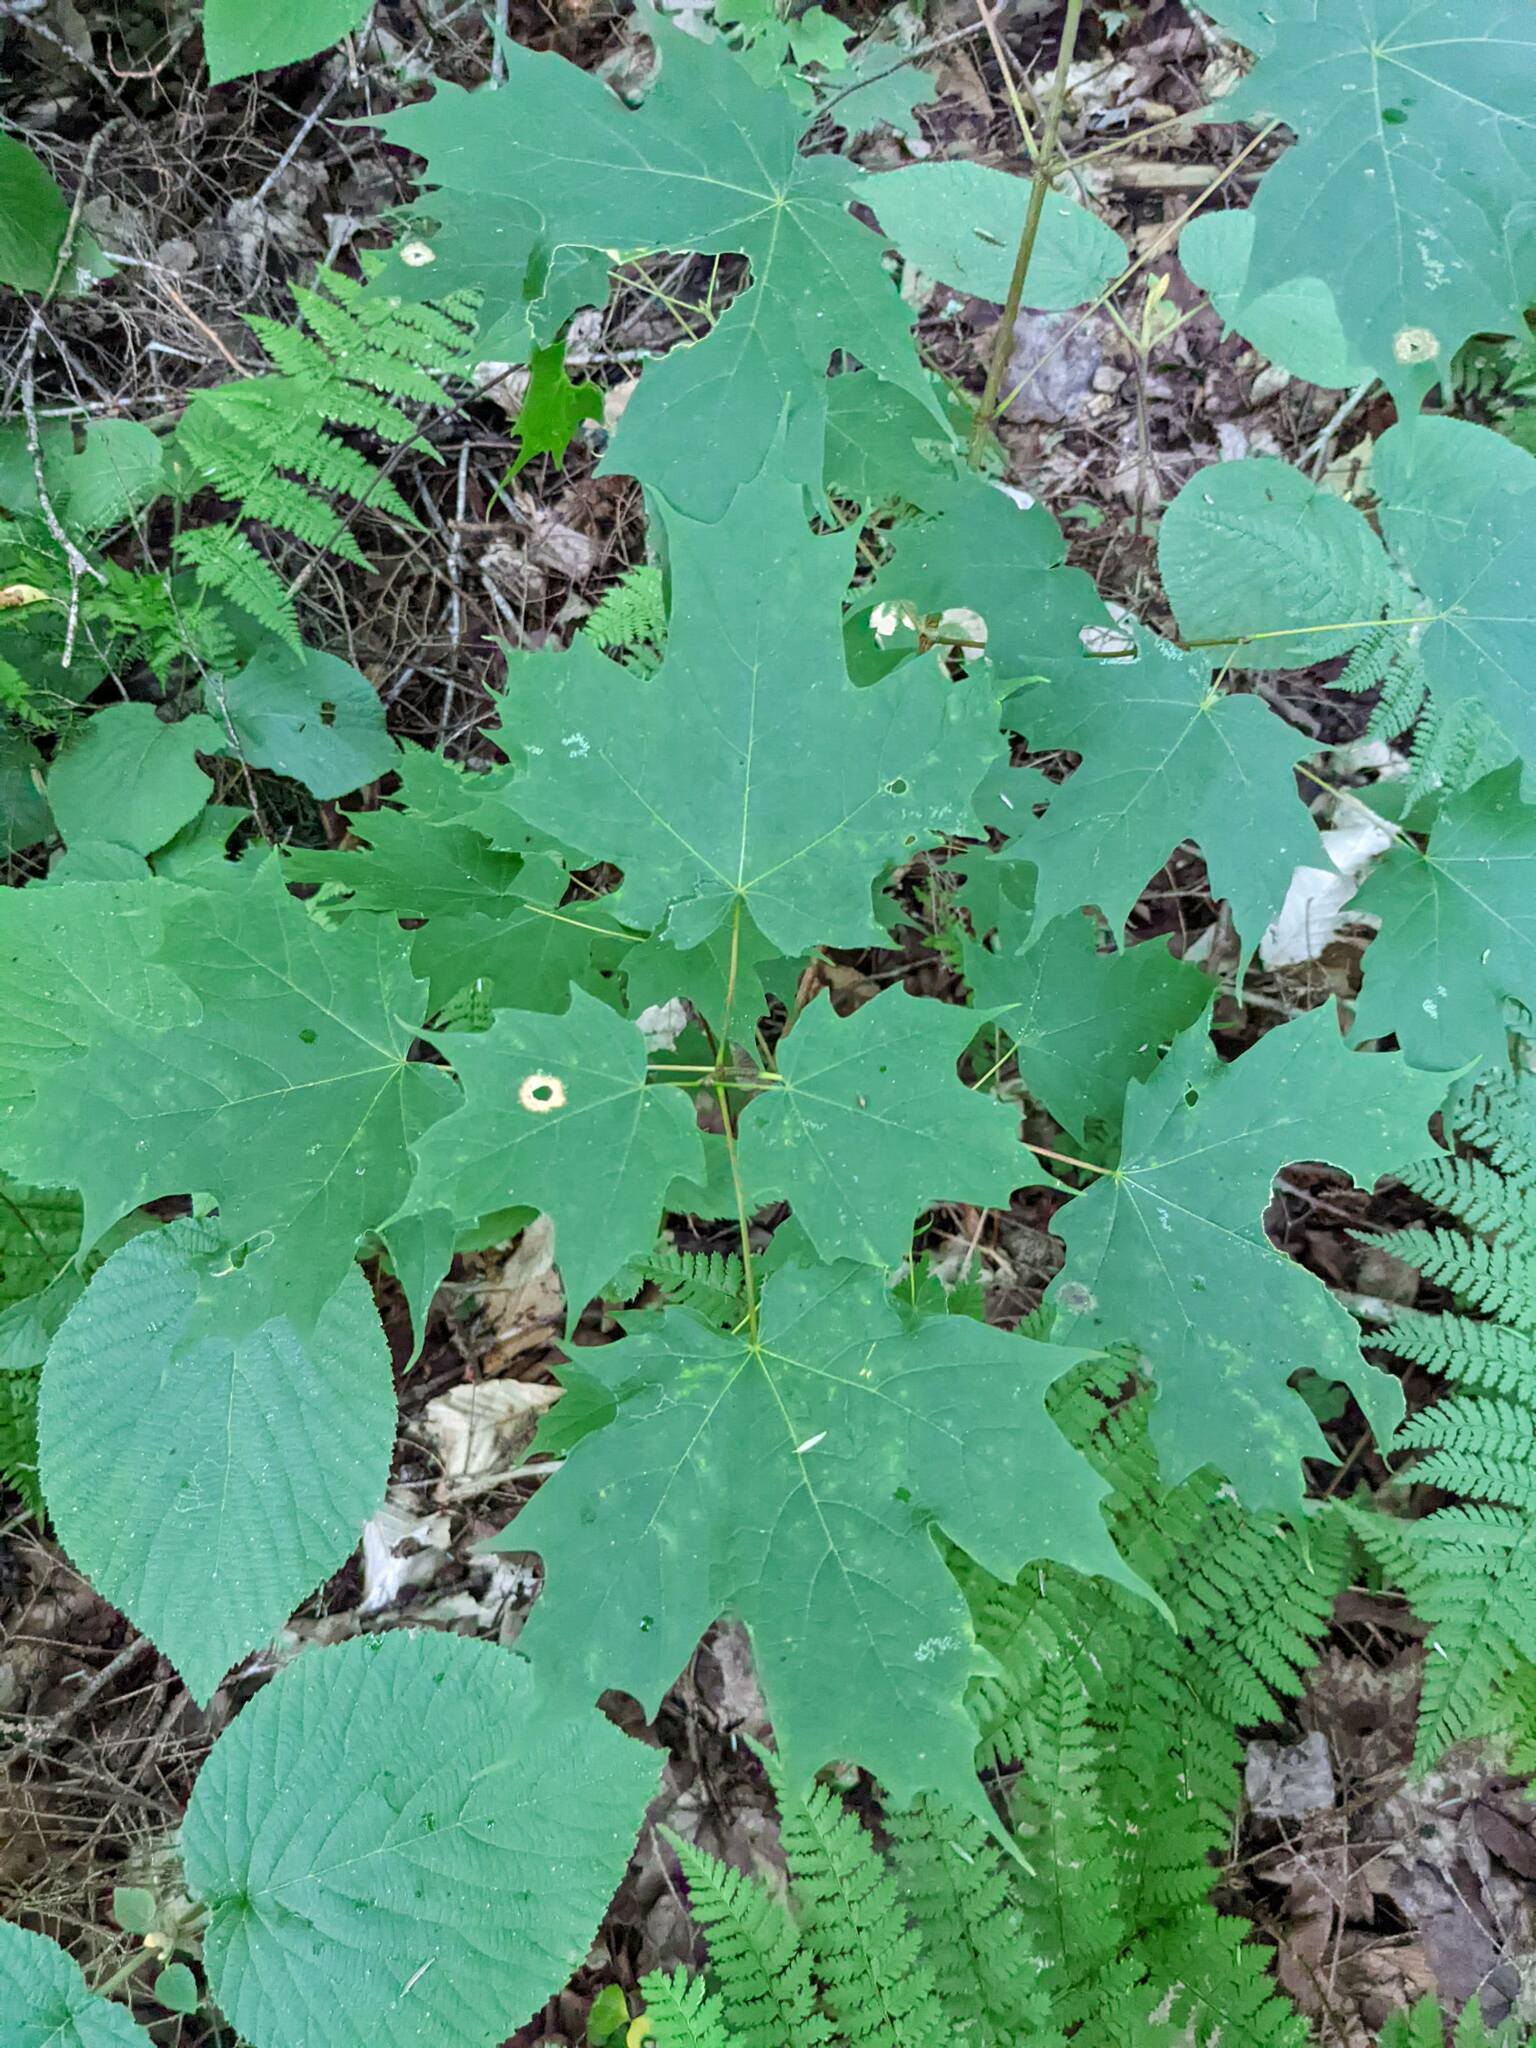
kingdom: Plantae
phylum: Tracheophyta
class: Magnoliopsida
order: Sapindales
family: Sapindaceae
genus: Acer
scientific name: Acer saccharum
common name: Sugar maple
